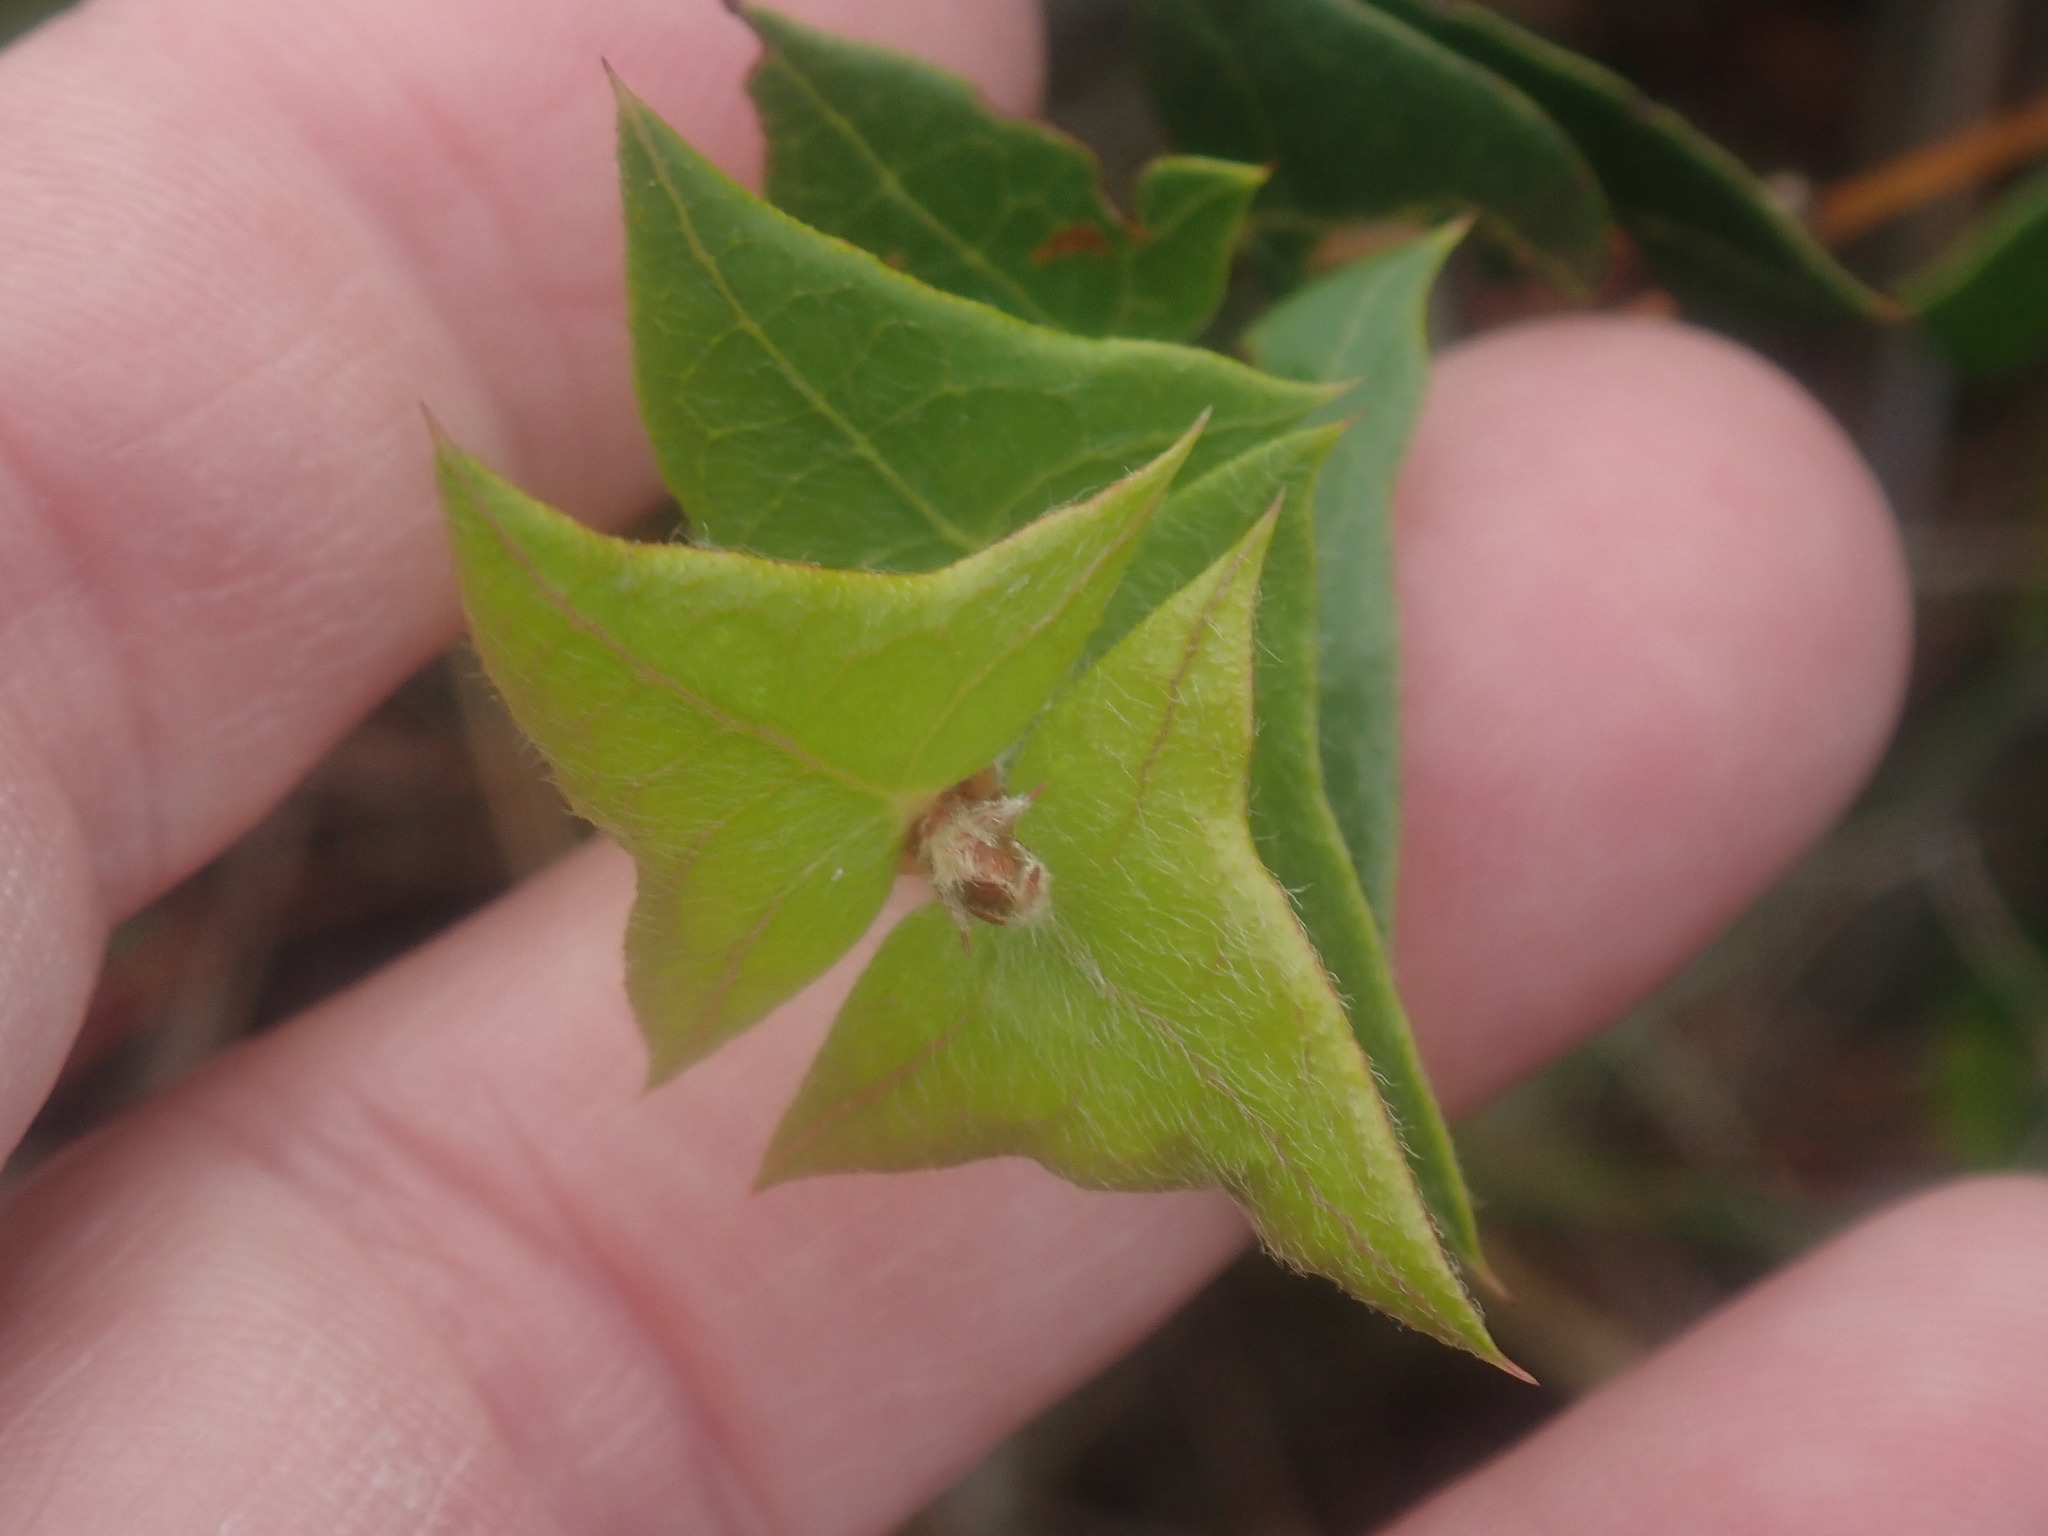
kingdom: Plantae
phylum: Tracheophyta
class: Magnoliopsida
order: Fabales
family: Fabaceae
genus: Platylobium
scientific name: Platylobium obtusangulum
